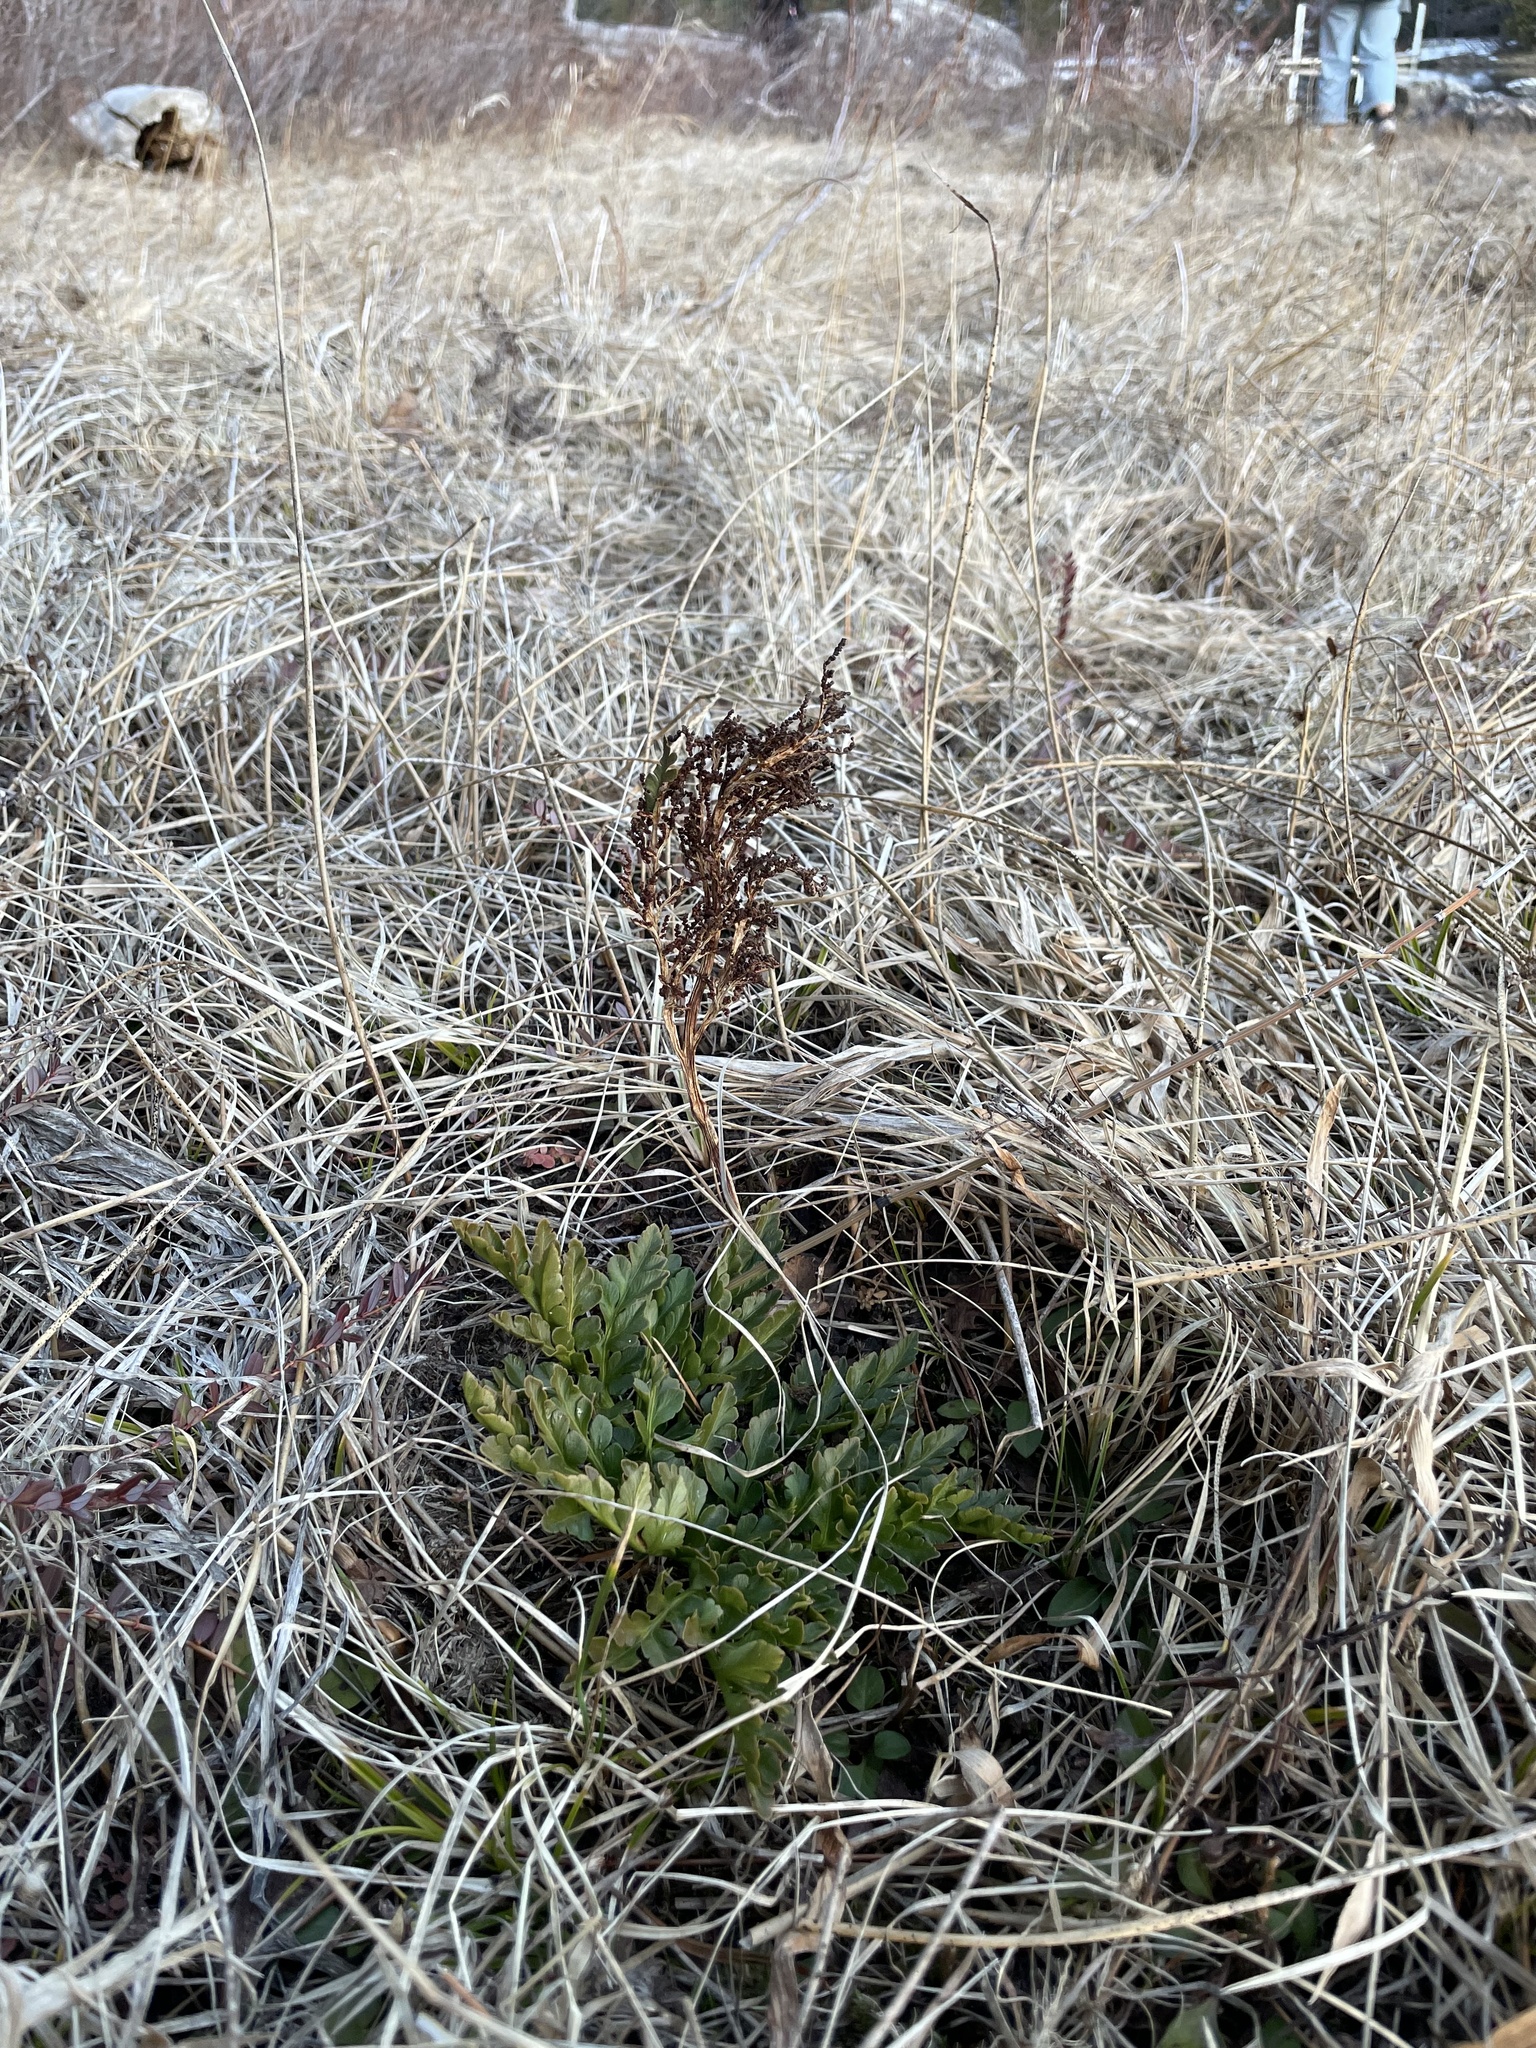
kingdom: Plantae
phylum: Tracheophyta
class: Polypodiopsida
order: Ophioglossales
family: Ophioglossaceae
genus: Sceptridium
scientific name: Sceptridium multifidum
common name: Leathery grape fern
